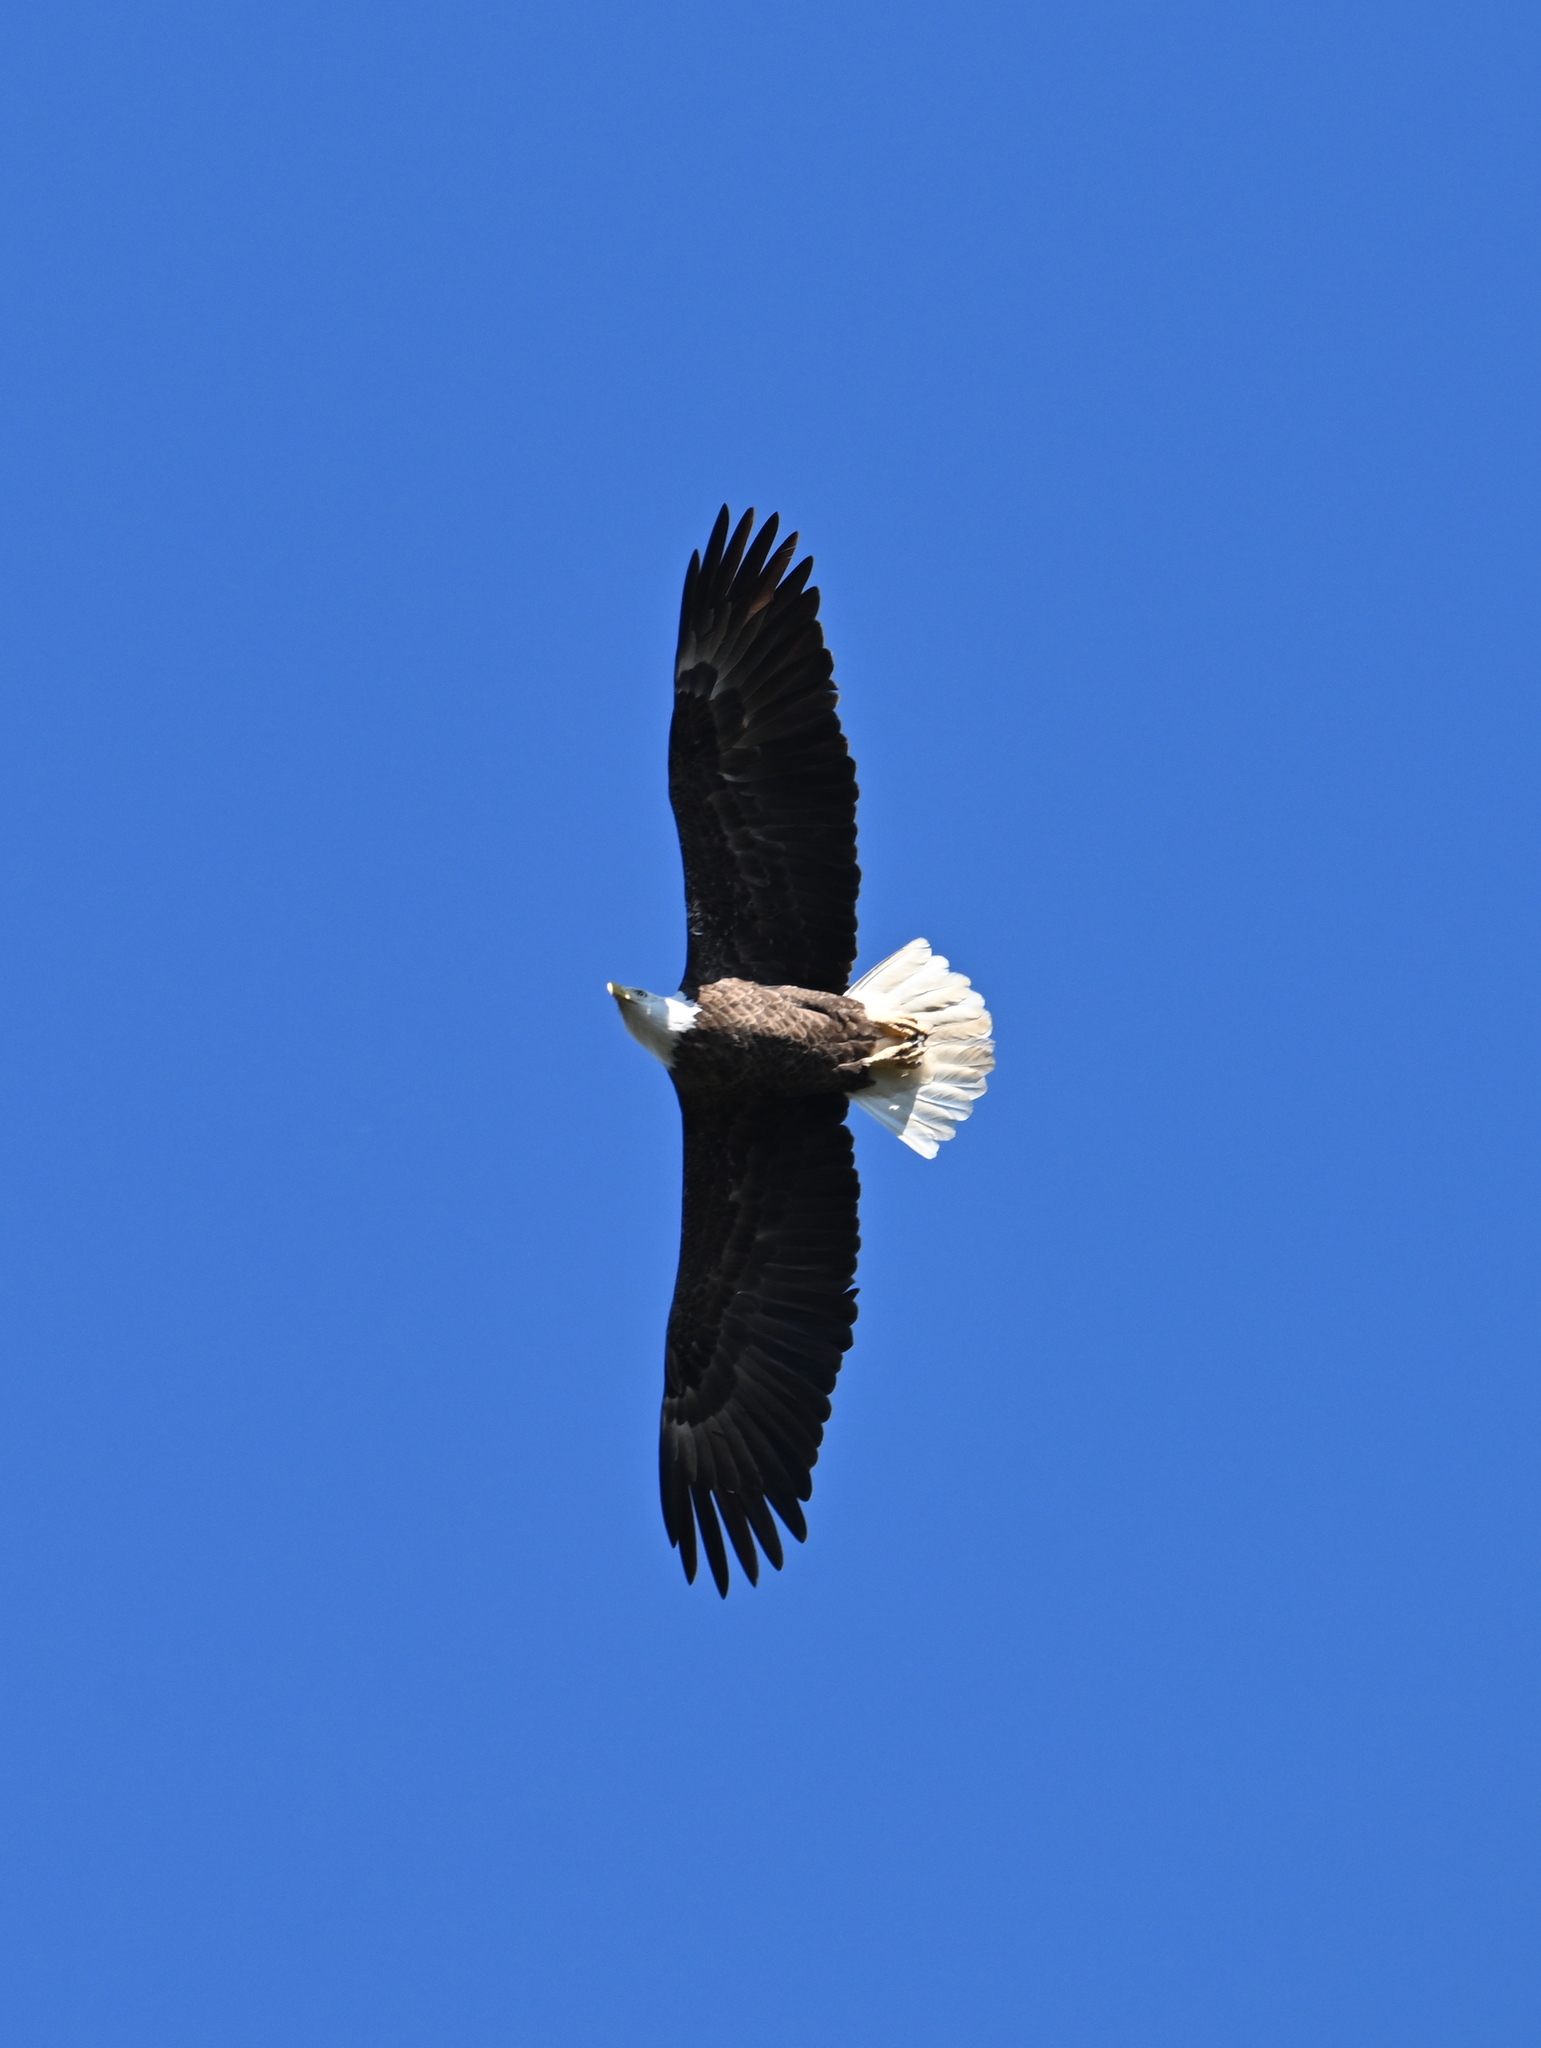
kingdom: Animalia
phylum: Chordata
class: Aves
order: Accipitriformes
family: Accipitridae
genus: Haliaeetus
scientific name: Haliaeetus leucocephalus
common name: Bald eagle
